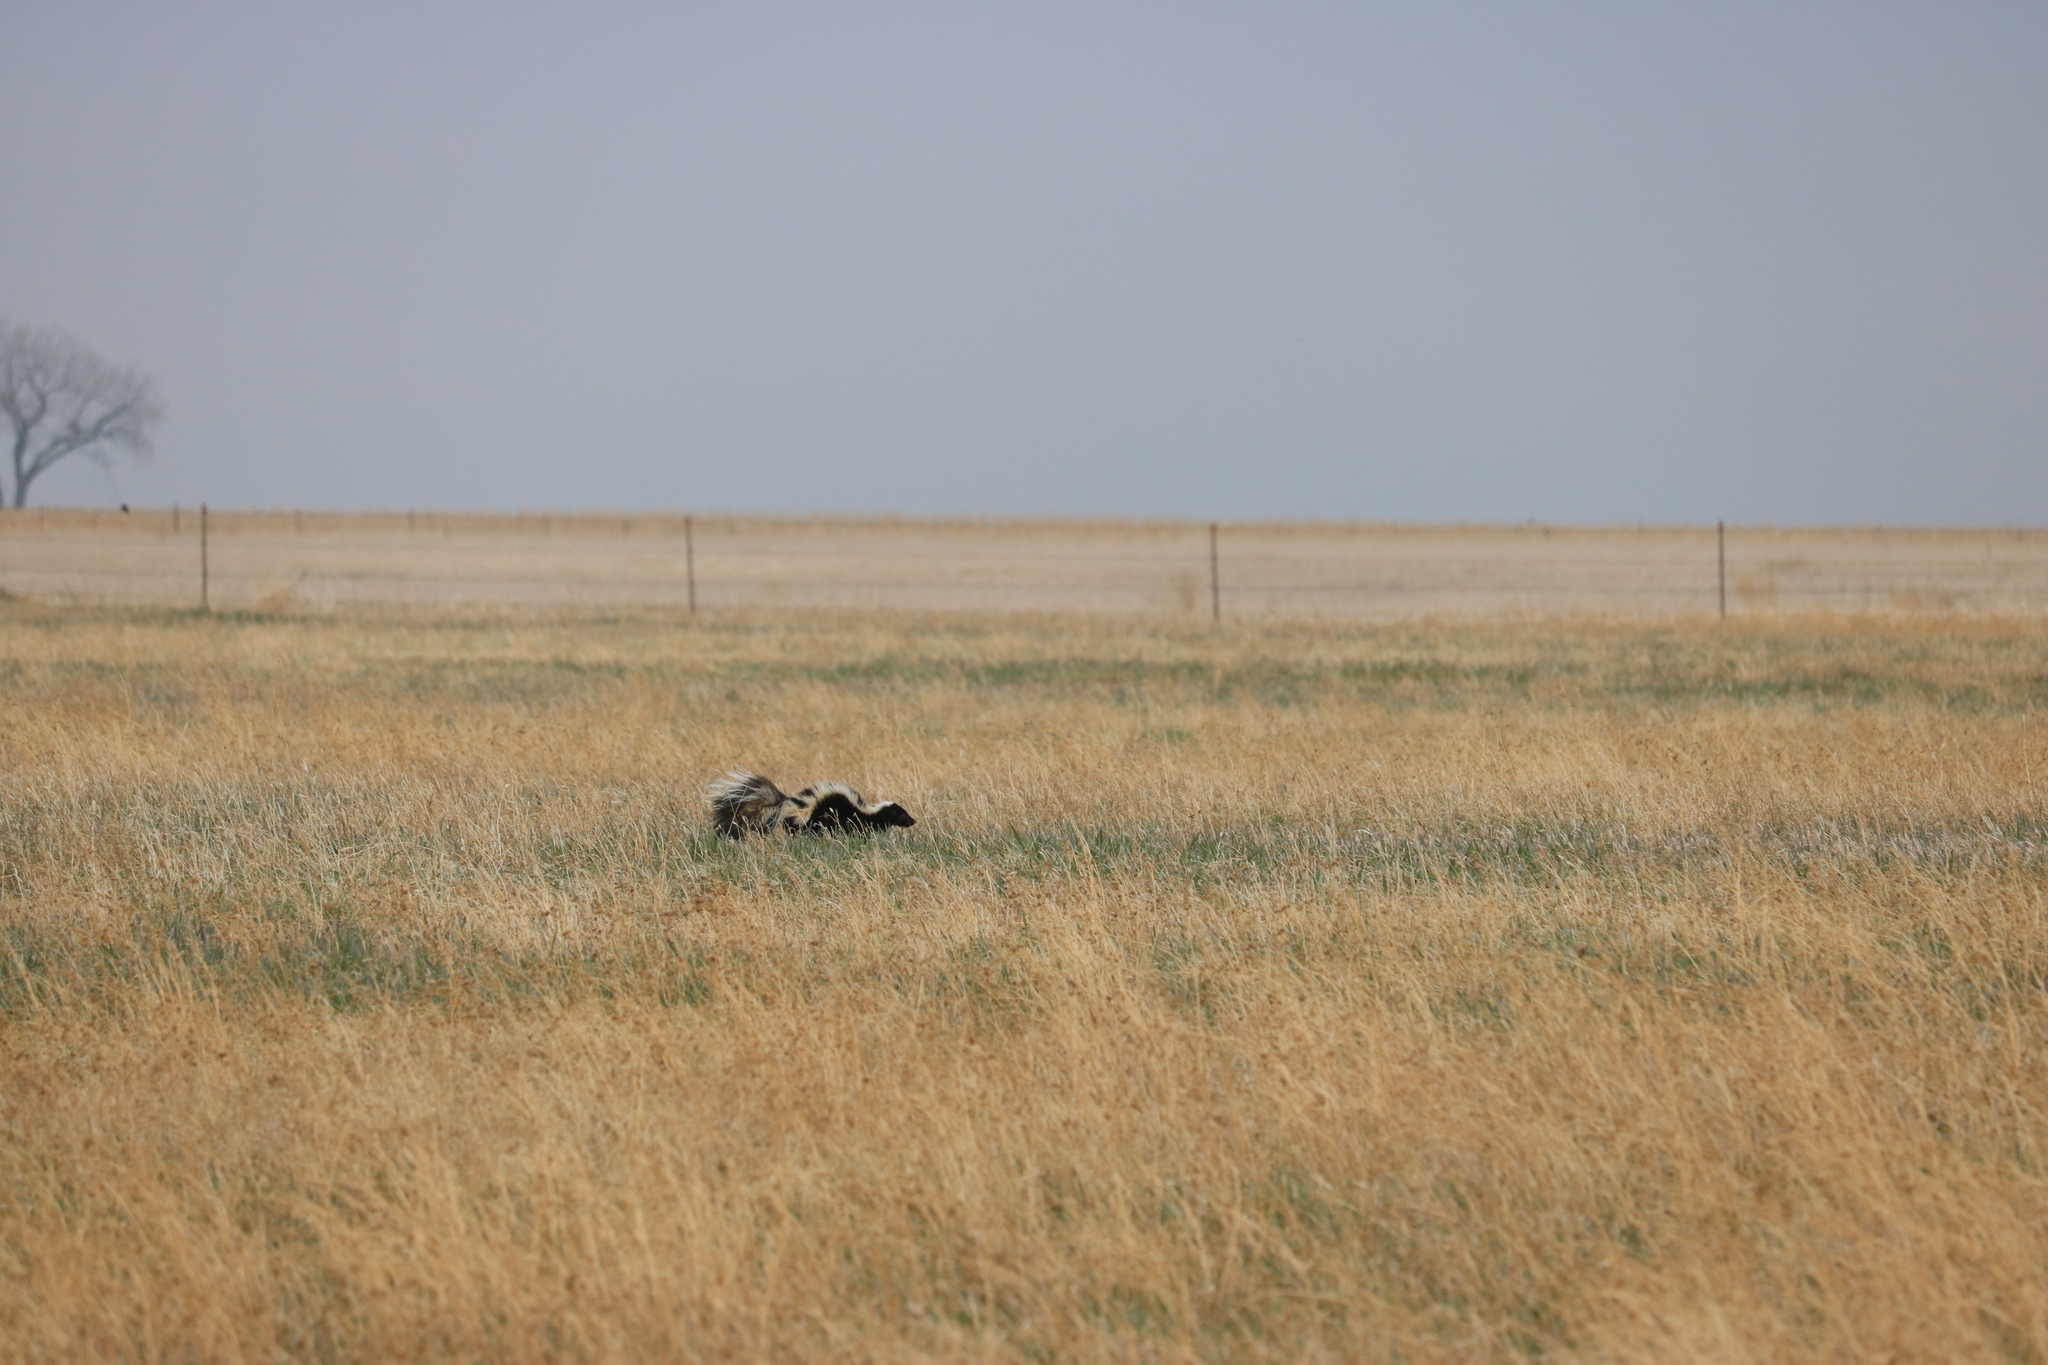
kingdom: Animalia
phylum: Chordata
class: Mammalia
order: Carnivora
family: Mephitidae
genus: Mephitis
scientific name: Mephitis mephitis
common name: Striped skunk
